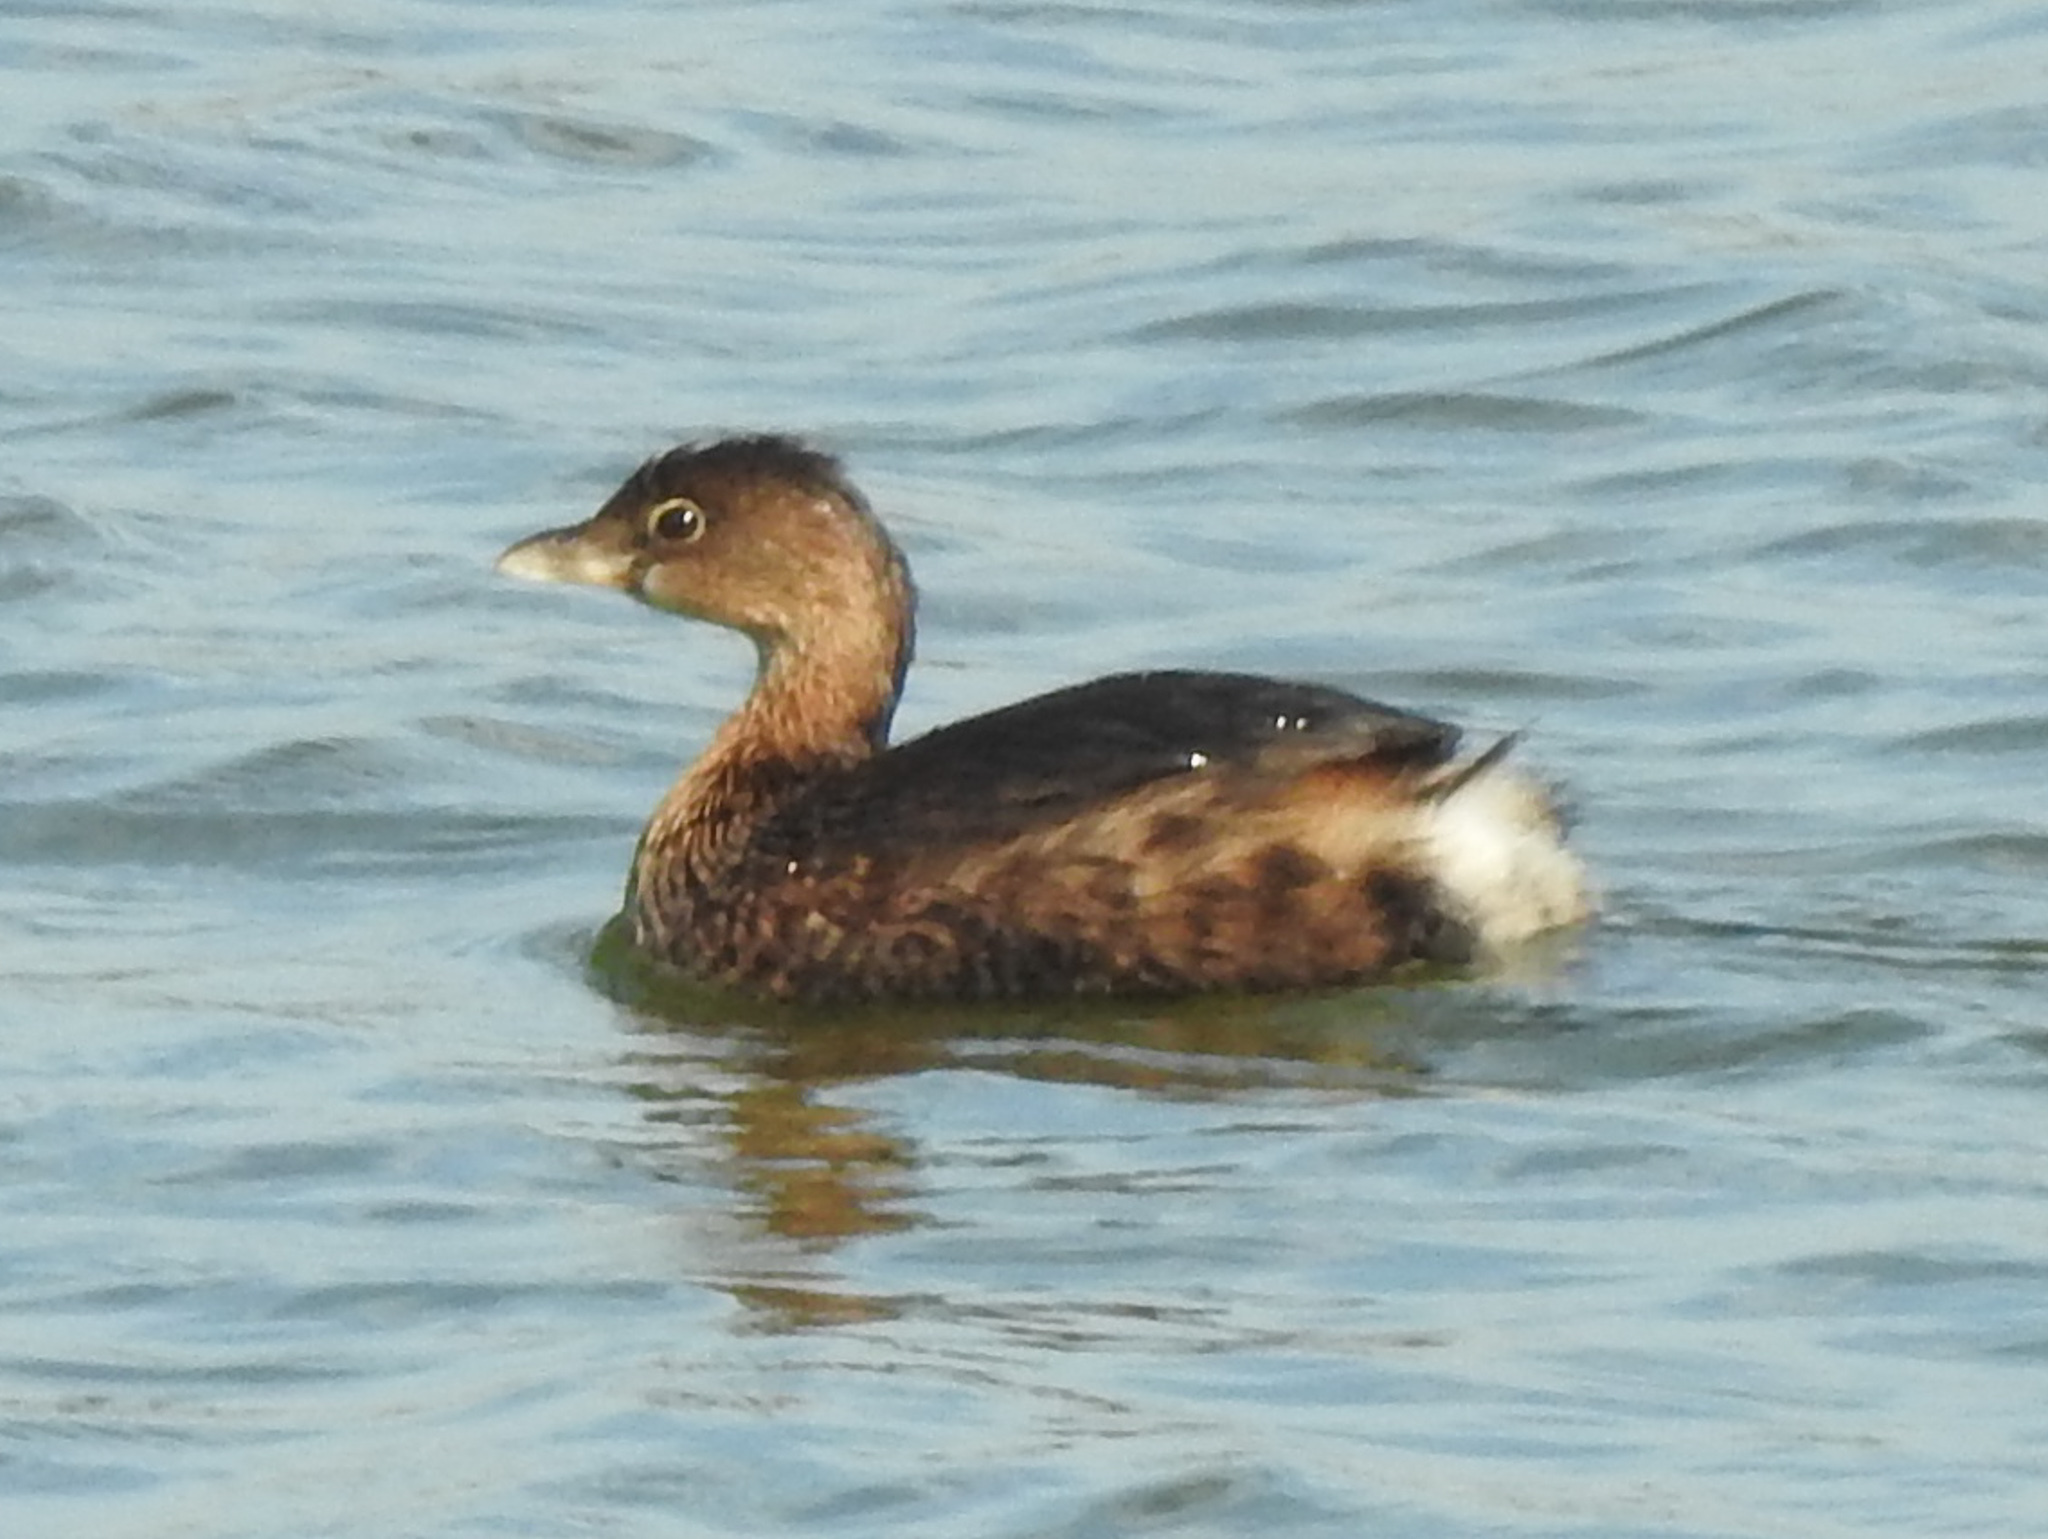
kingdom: Animalia
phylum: Chordata
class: Aves
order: Podicipediformes
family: Podicipedidae
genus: Podilymbus
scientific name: Podilymbus podiceps
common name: Pied-billed grebe
